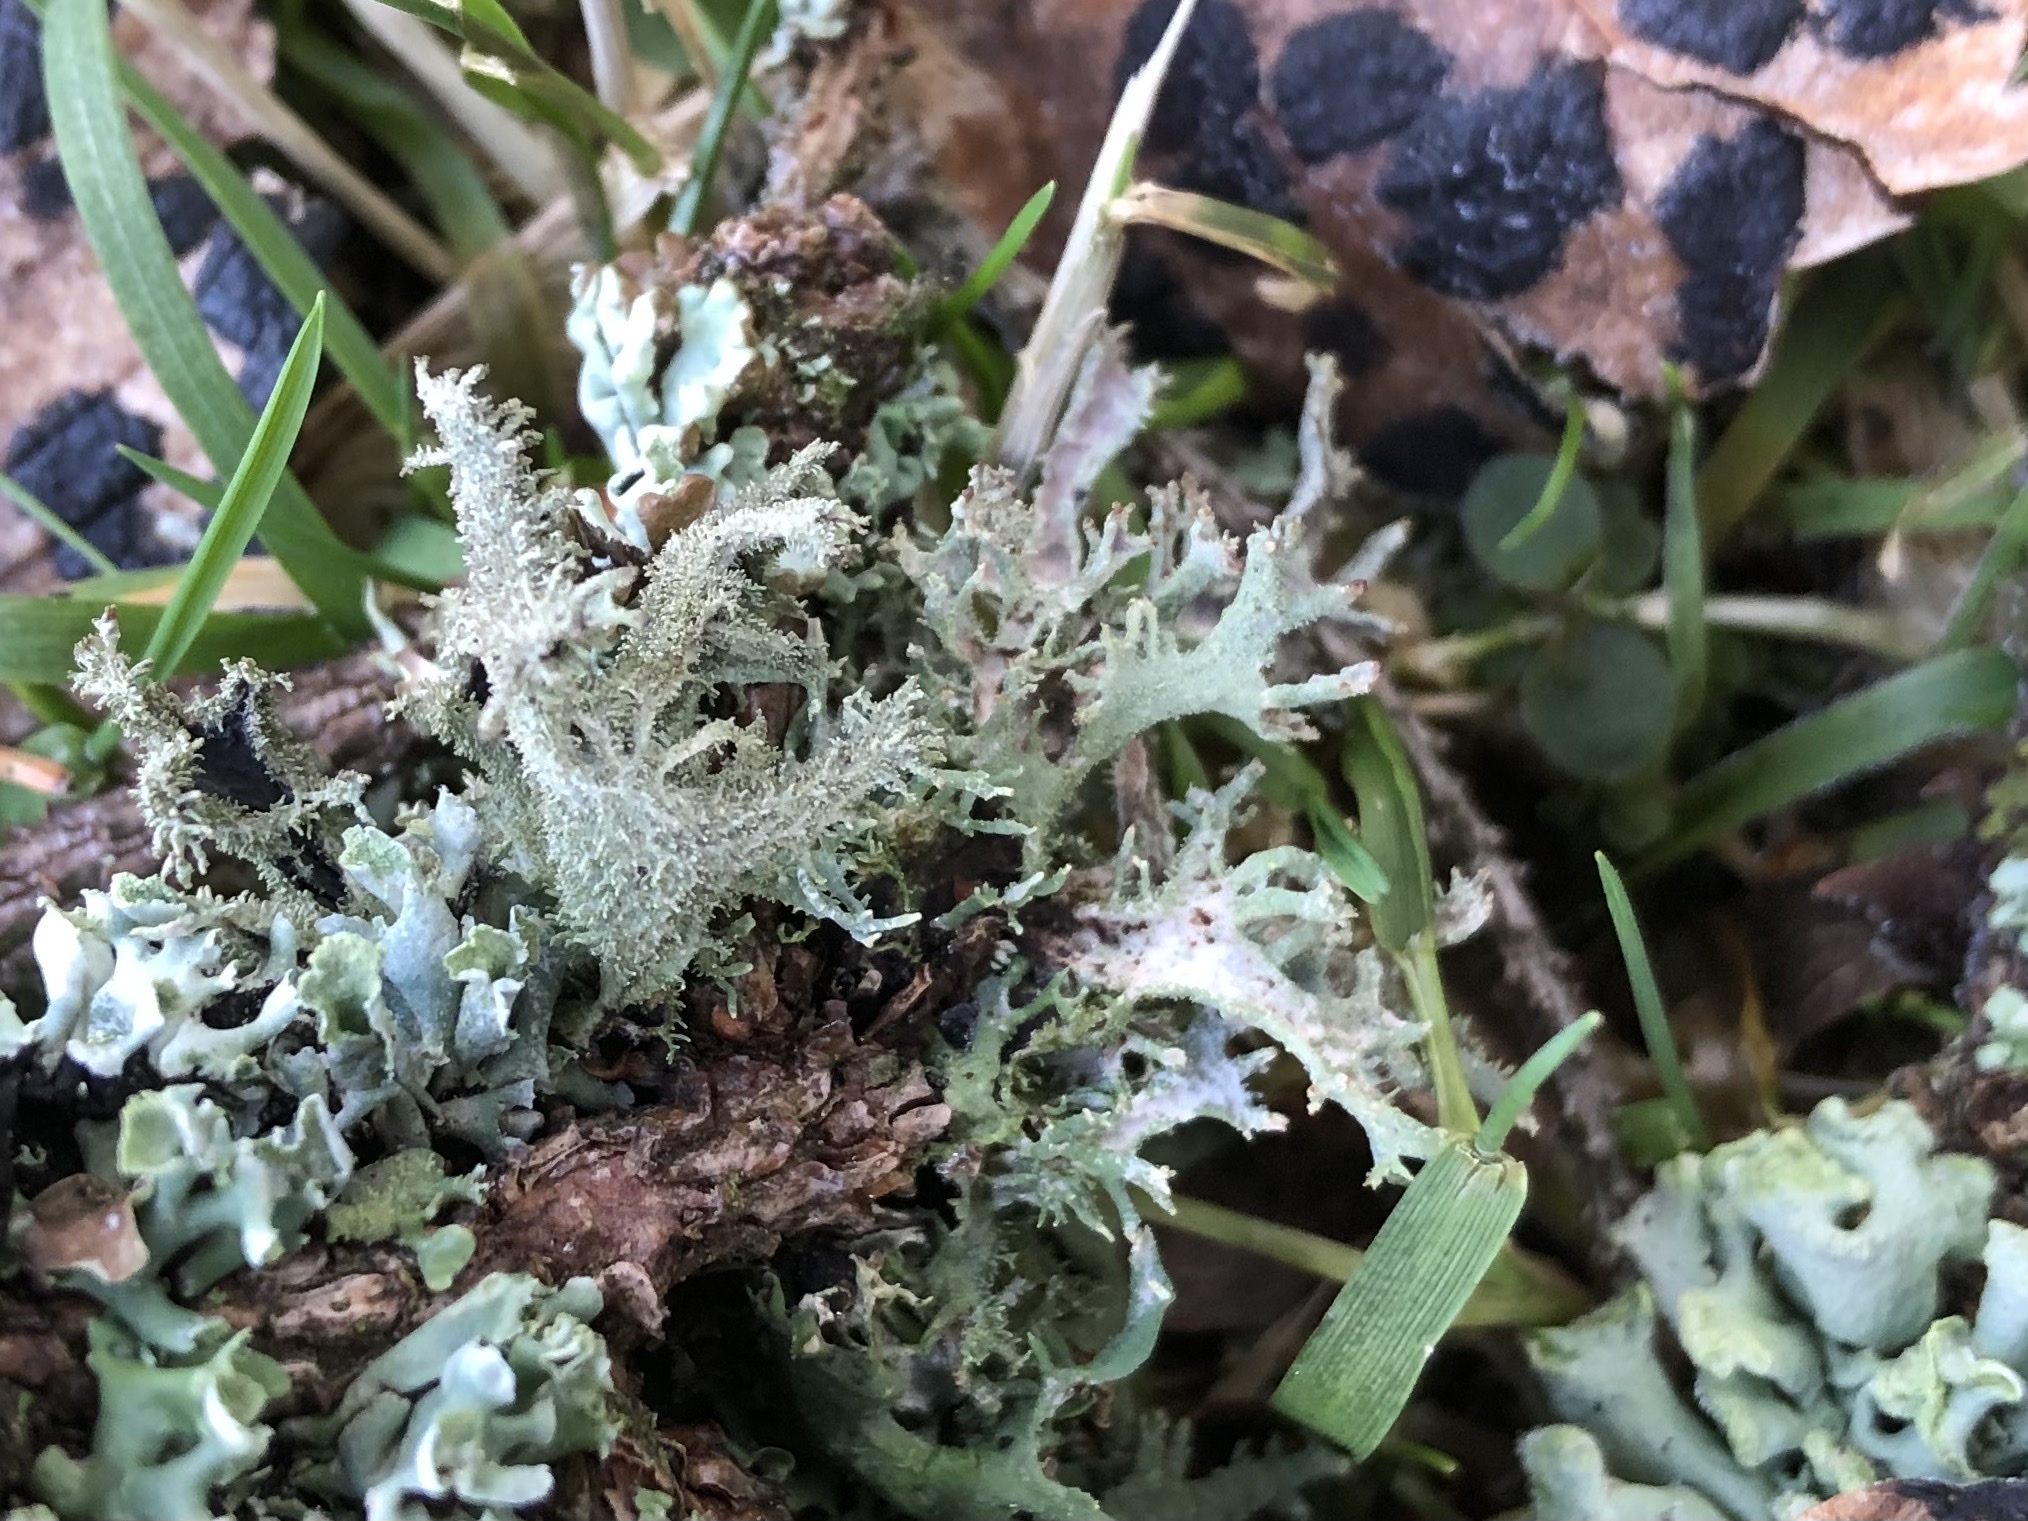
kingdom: Fungi
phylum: Ascomycota
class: Lecanoromycetes
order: Lecanorales
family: Parmeliaceae
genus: Pseudevernia
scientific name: Pseudevernia furfuracea
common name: Tree moss
